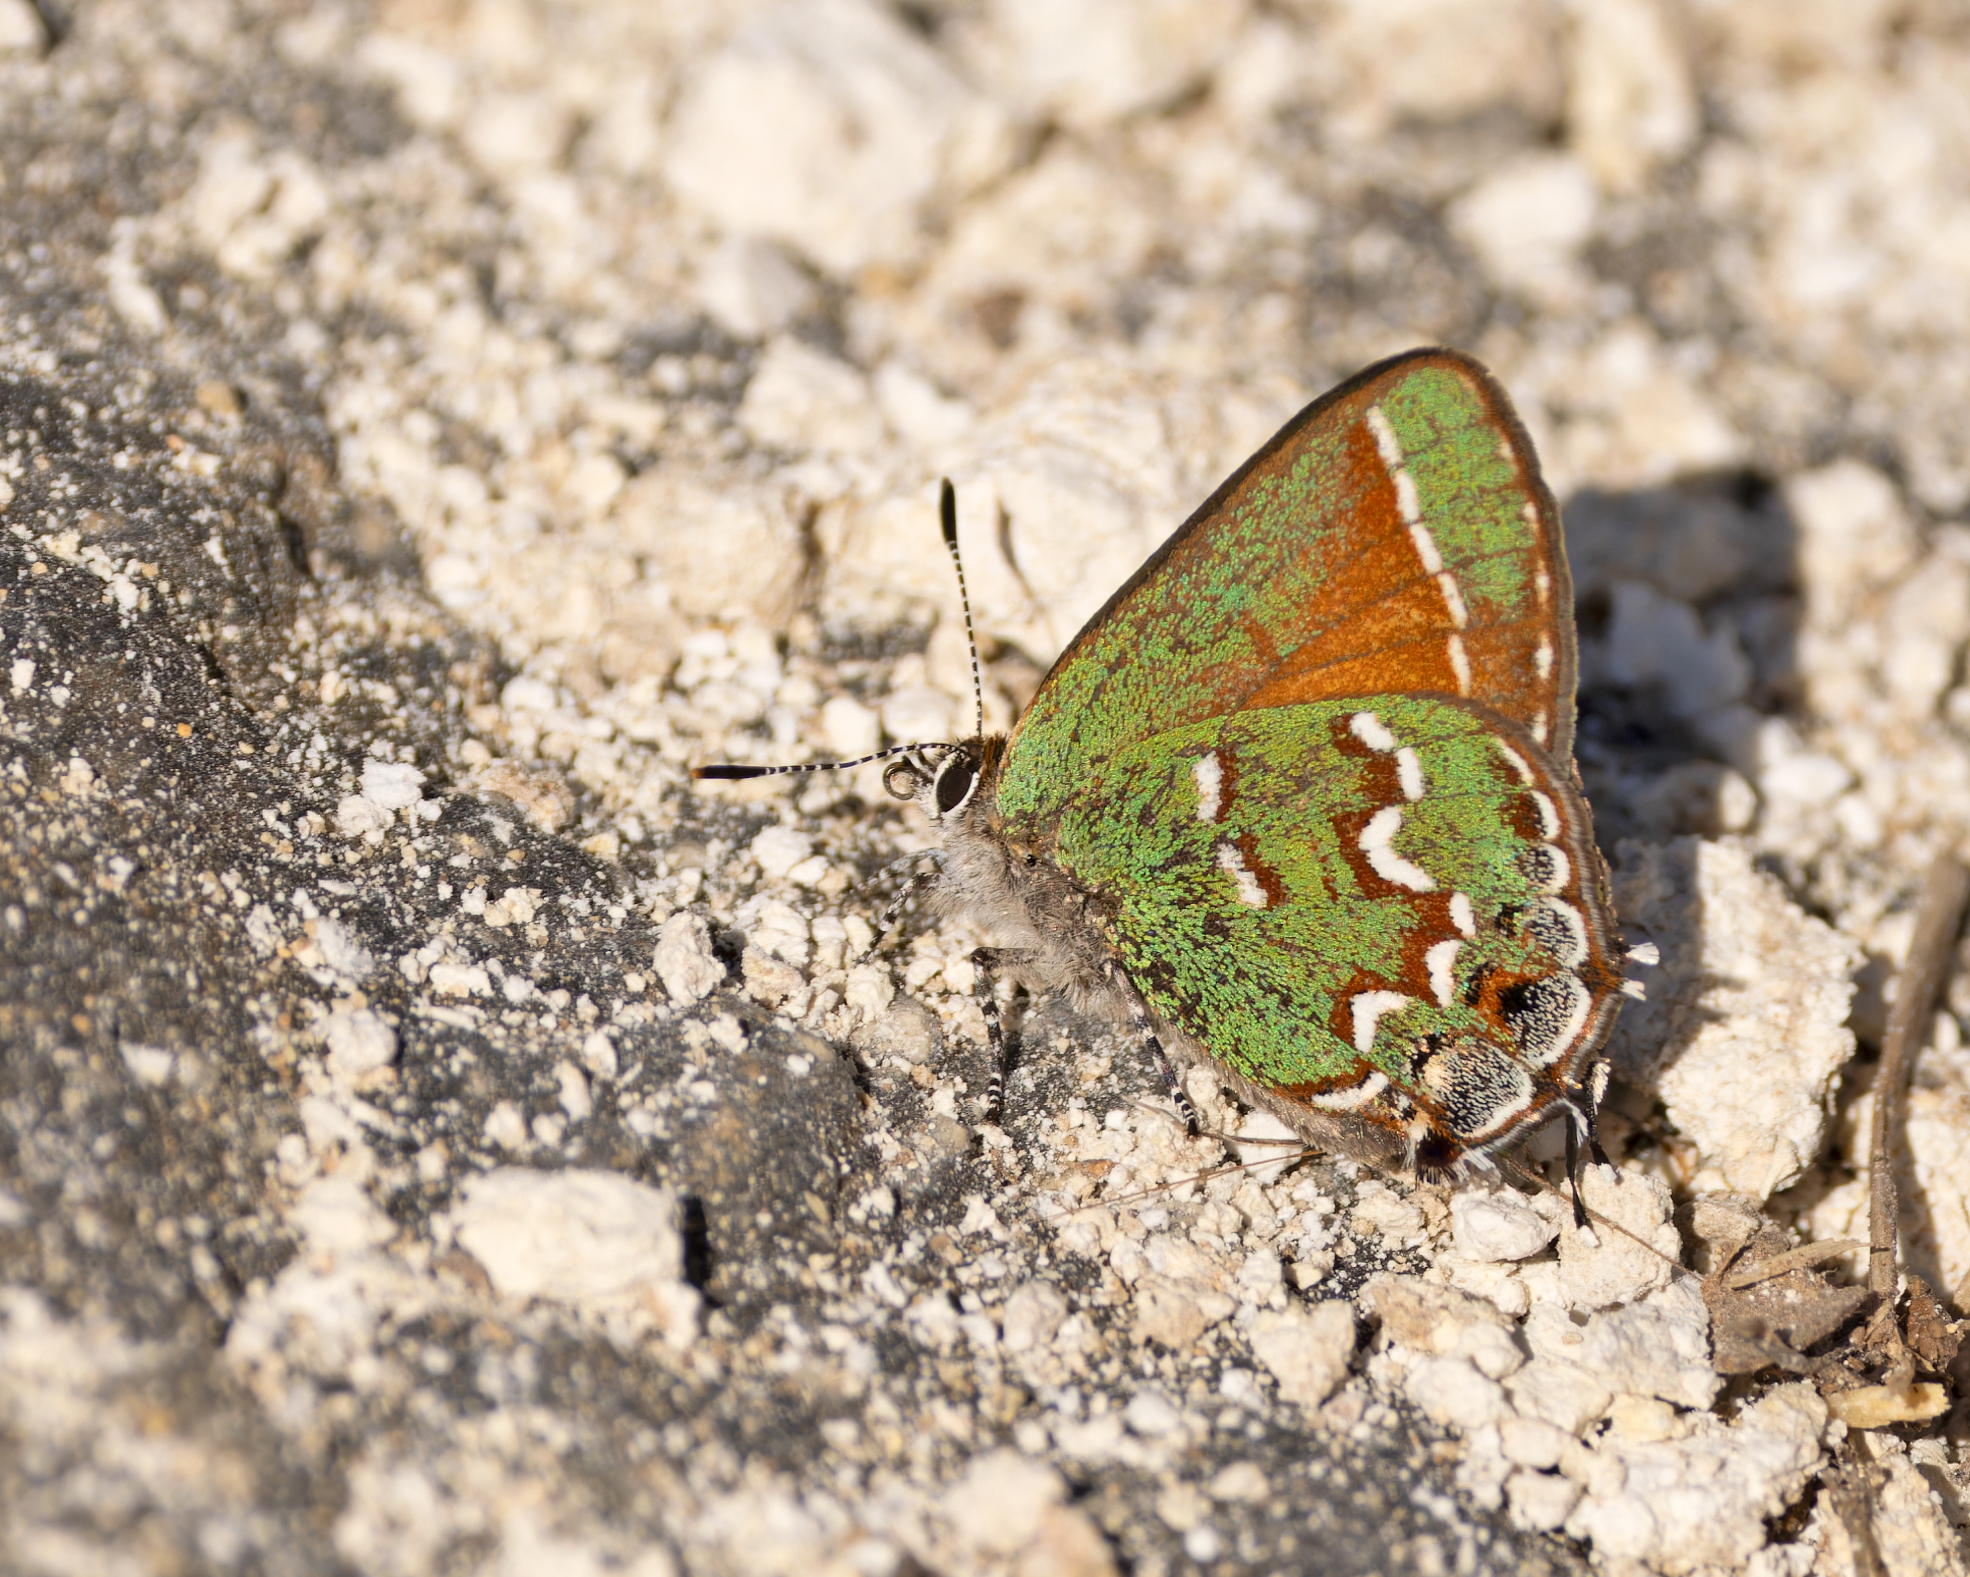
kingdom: Animalia
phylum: Arthropoda
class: Insecta
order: Lepidoptera
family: Lycaenidae
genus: Mitoura
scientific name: Mitoura gryneus
